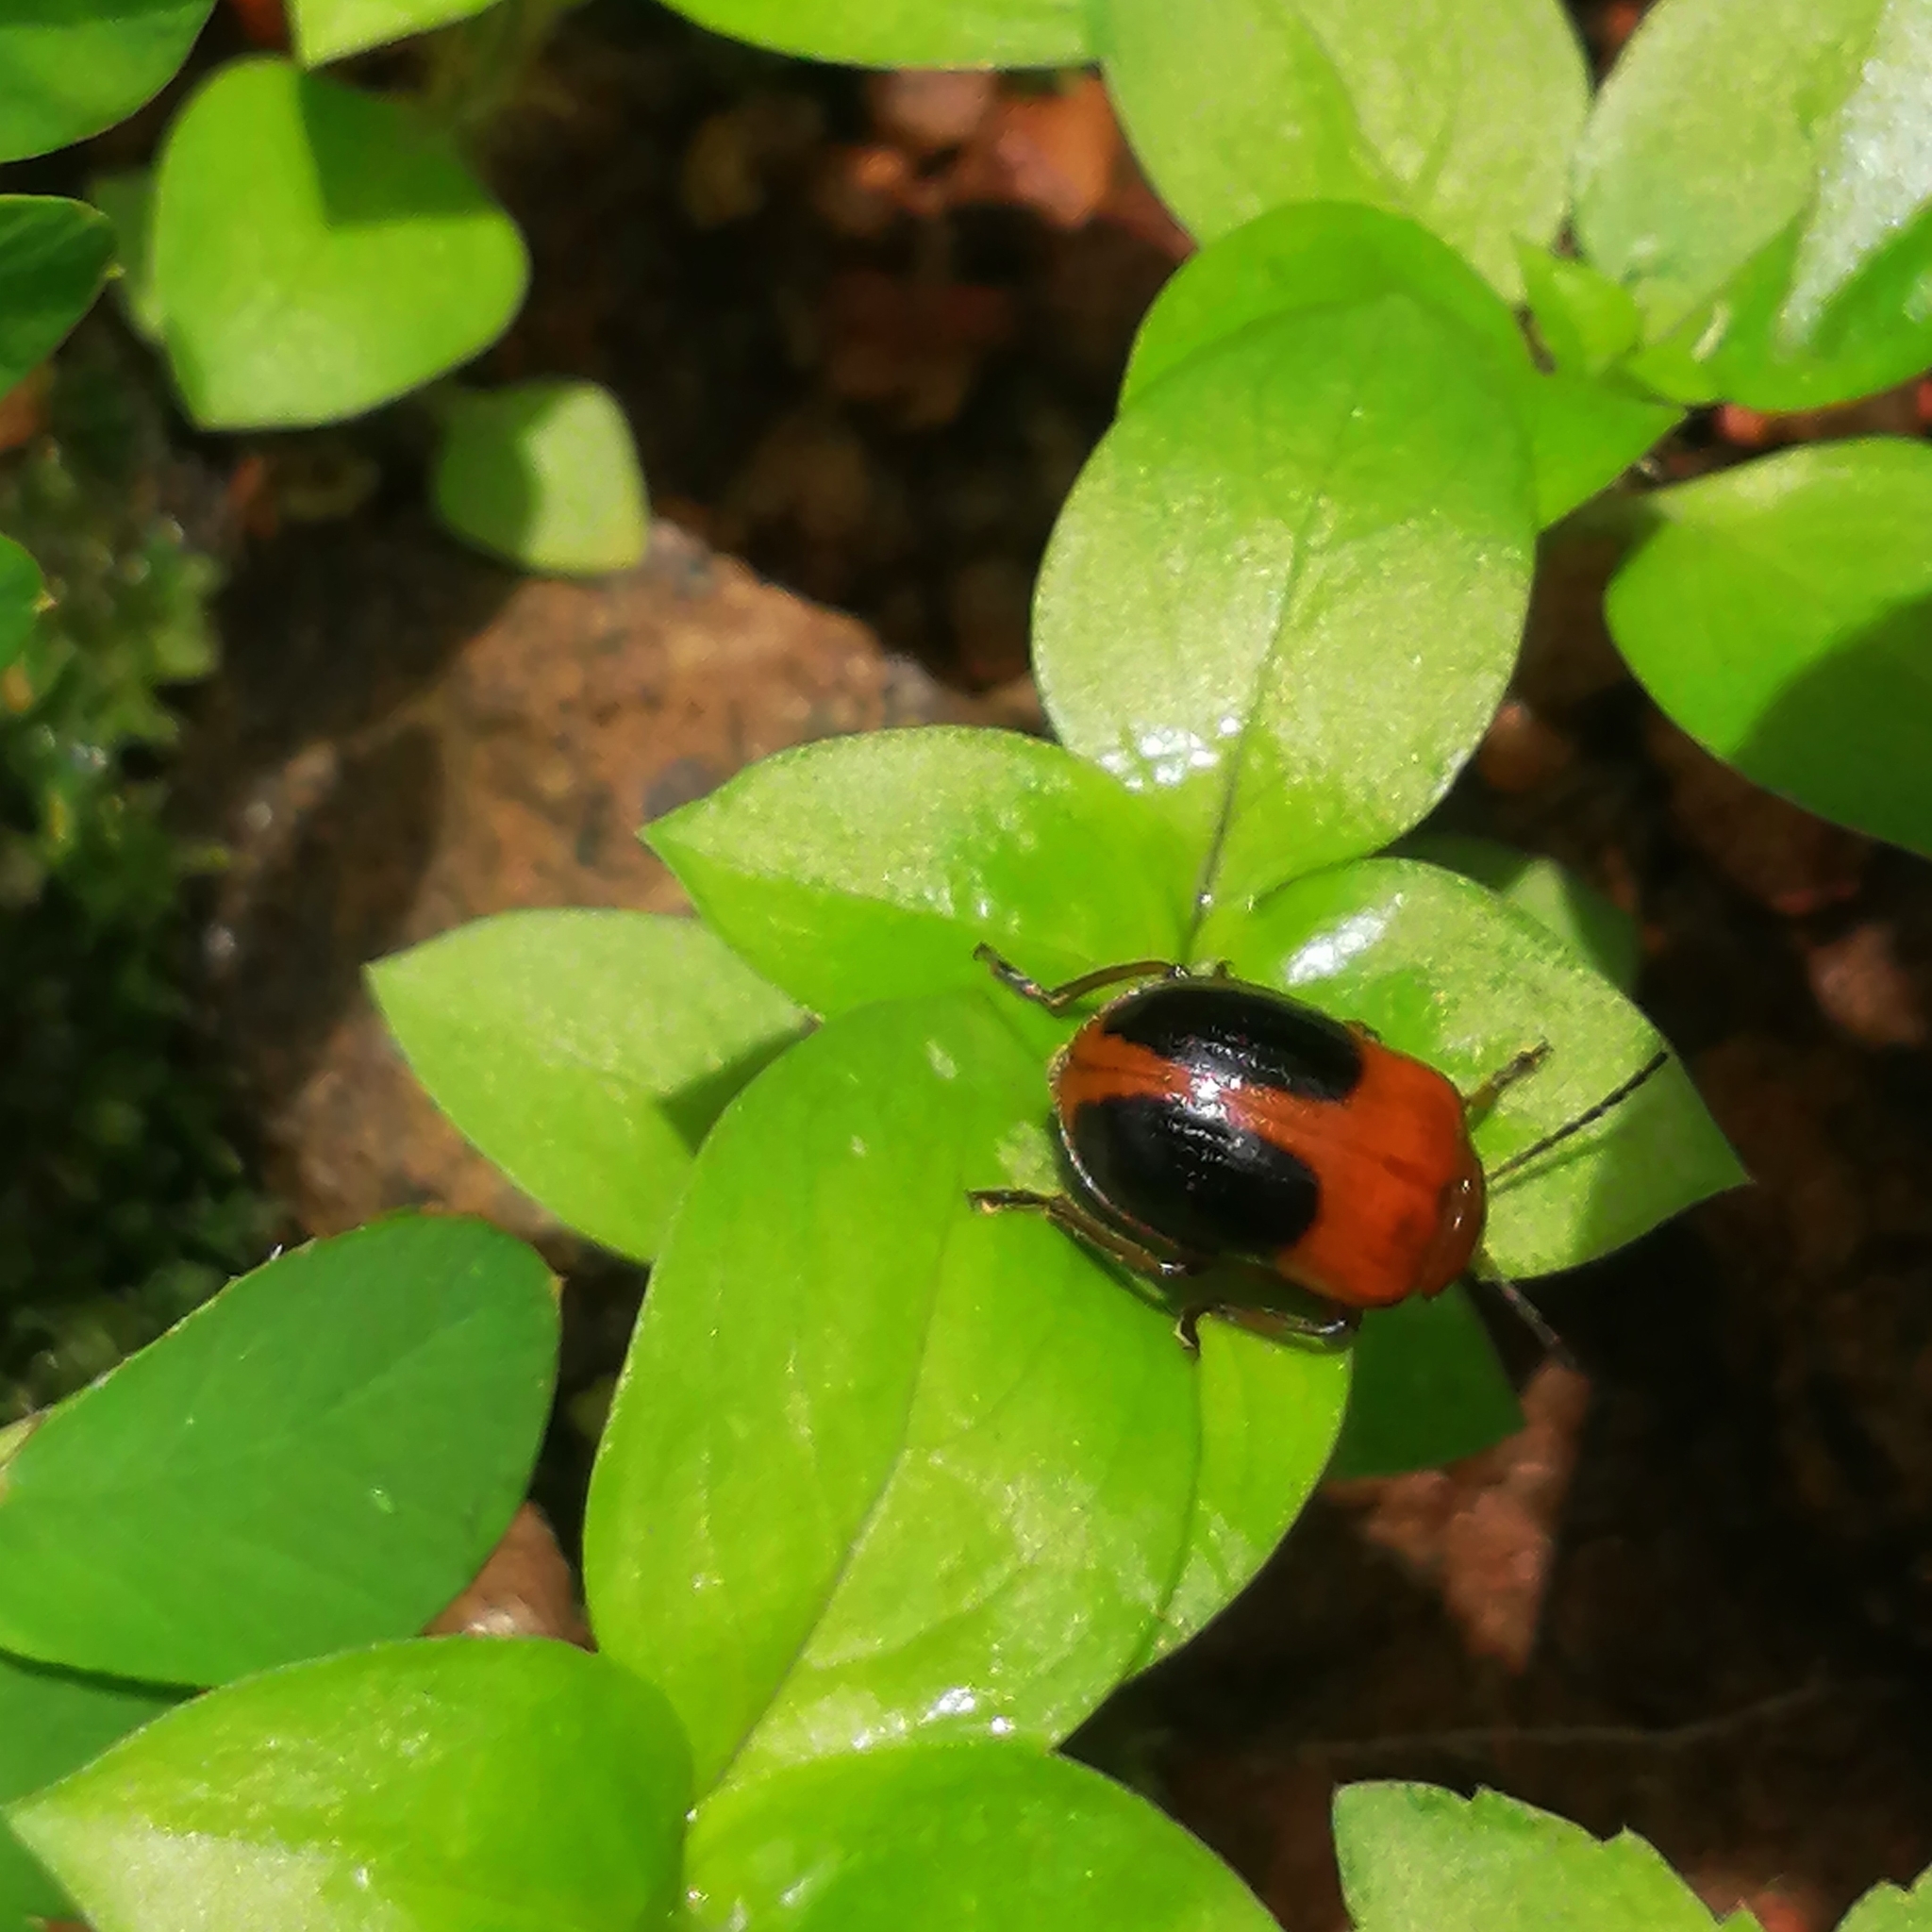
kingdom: Animalia
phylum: Arthropoda
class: Insecta
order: Coleoptera
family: Chrysomelidae
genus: Sphenoraia
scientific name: Sphenoraia
